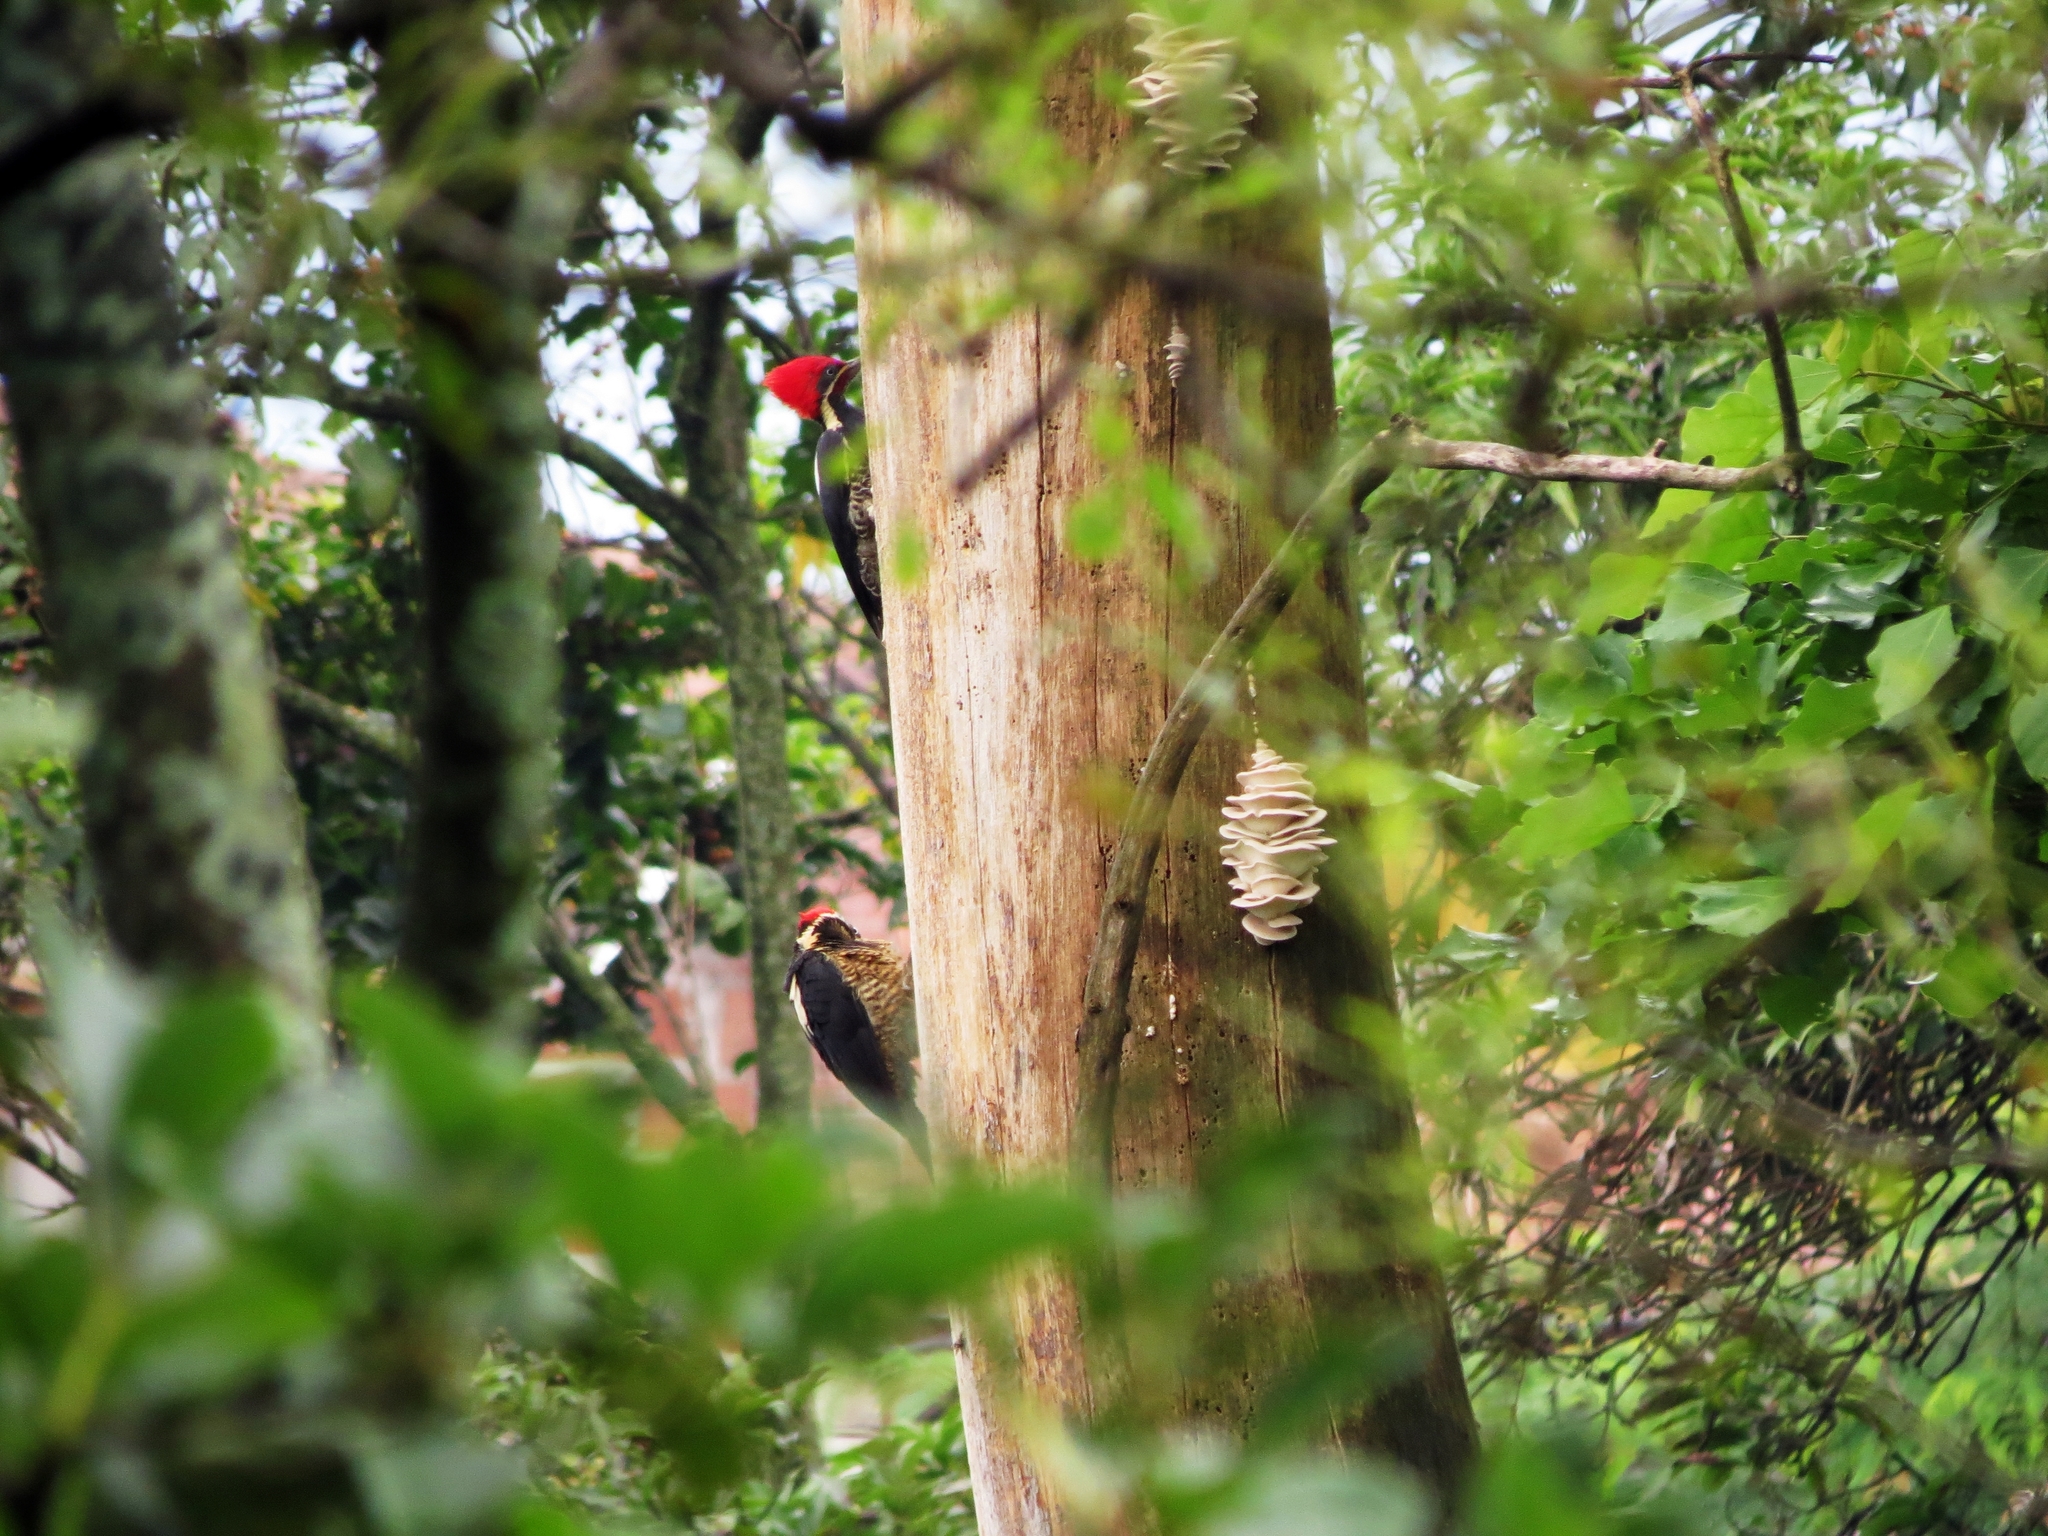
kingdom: Animalia
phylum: Chordata
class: Aves
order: Piciformes
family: Picidae
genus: Dryocopus
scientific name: Dryocopus lineatus
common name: Lineated woodpecker
